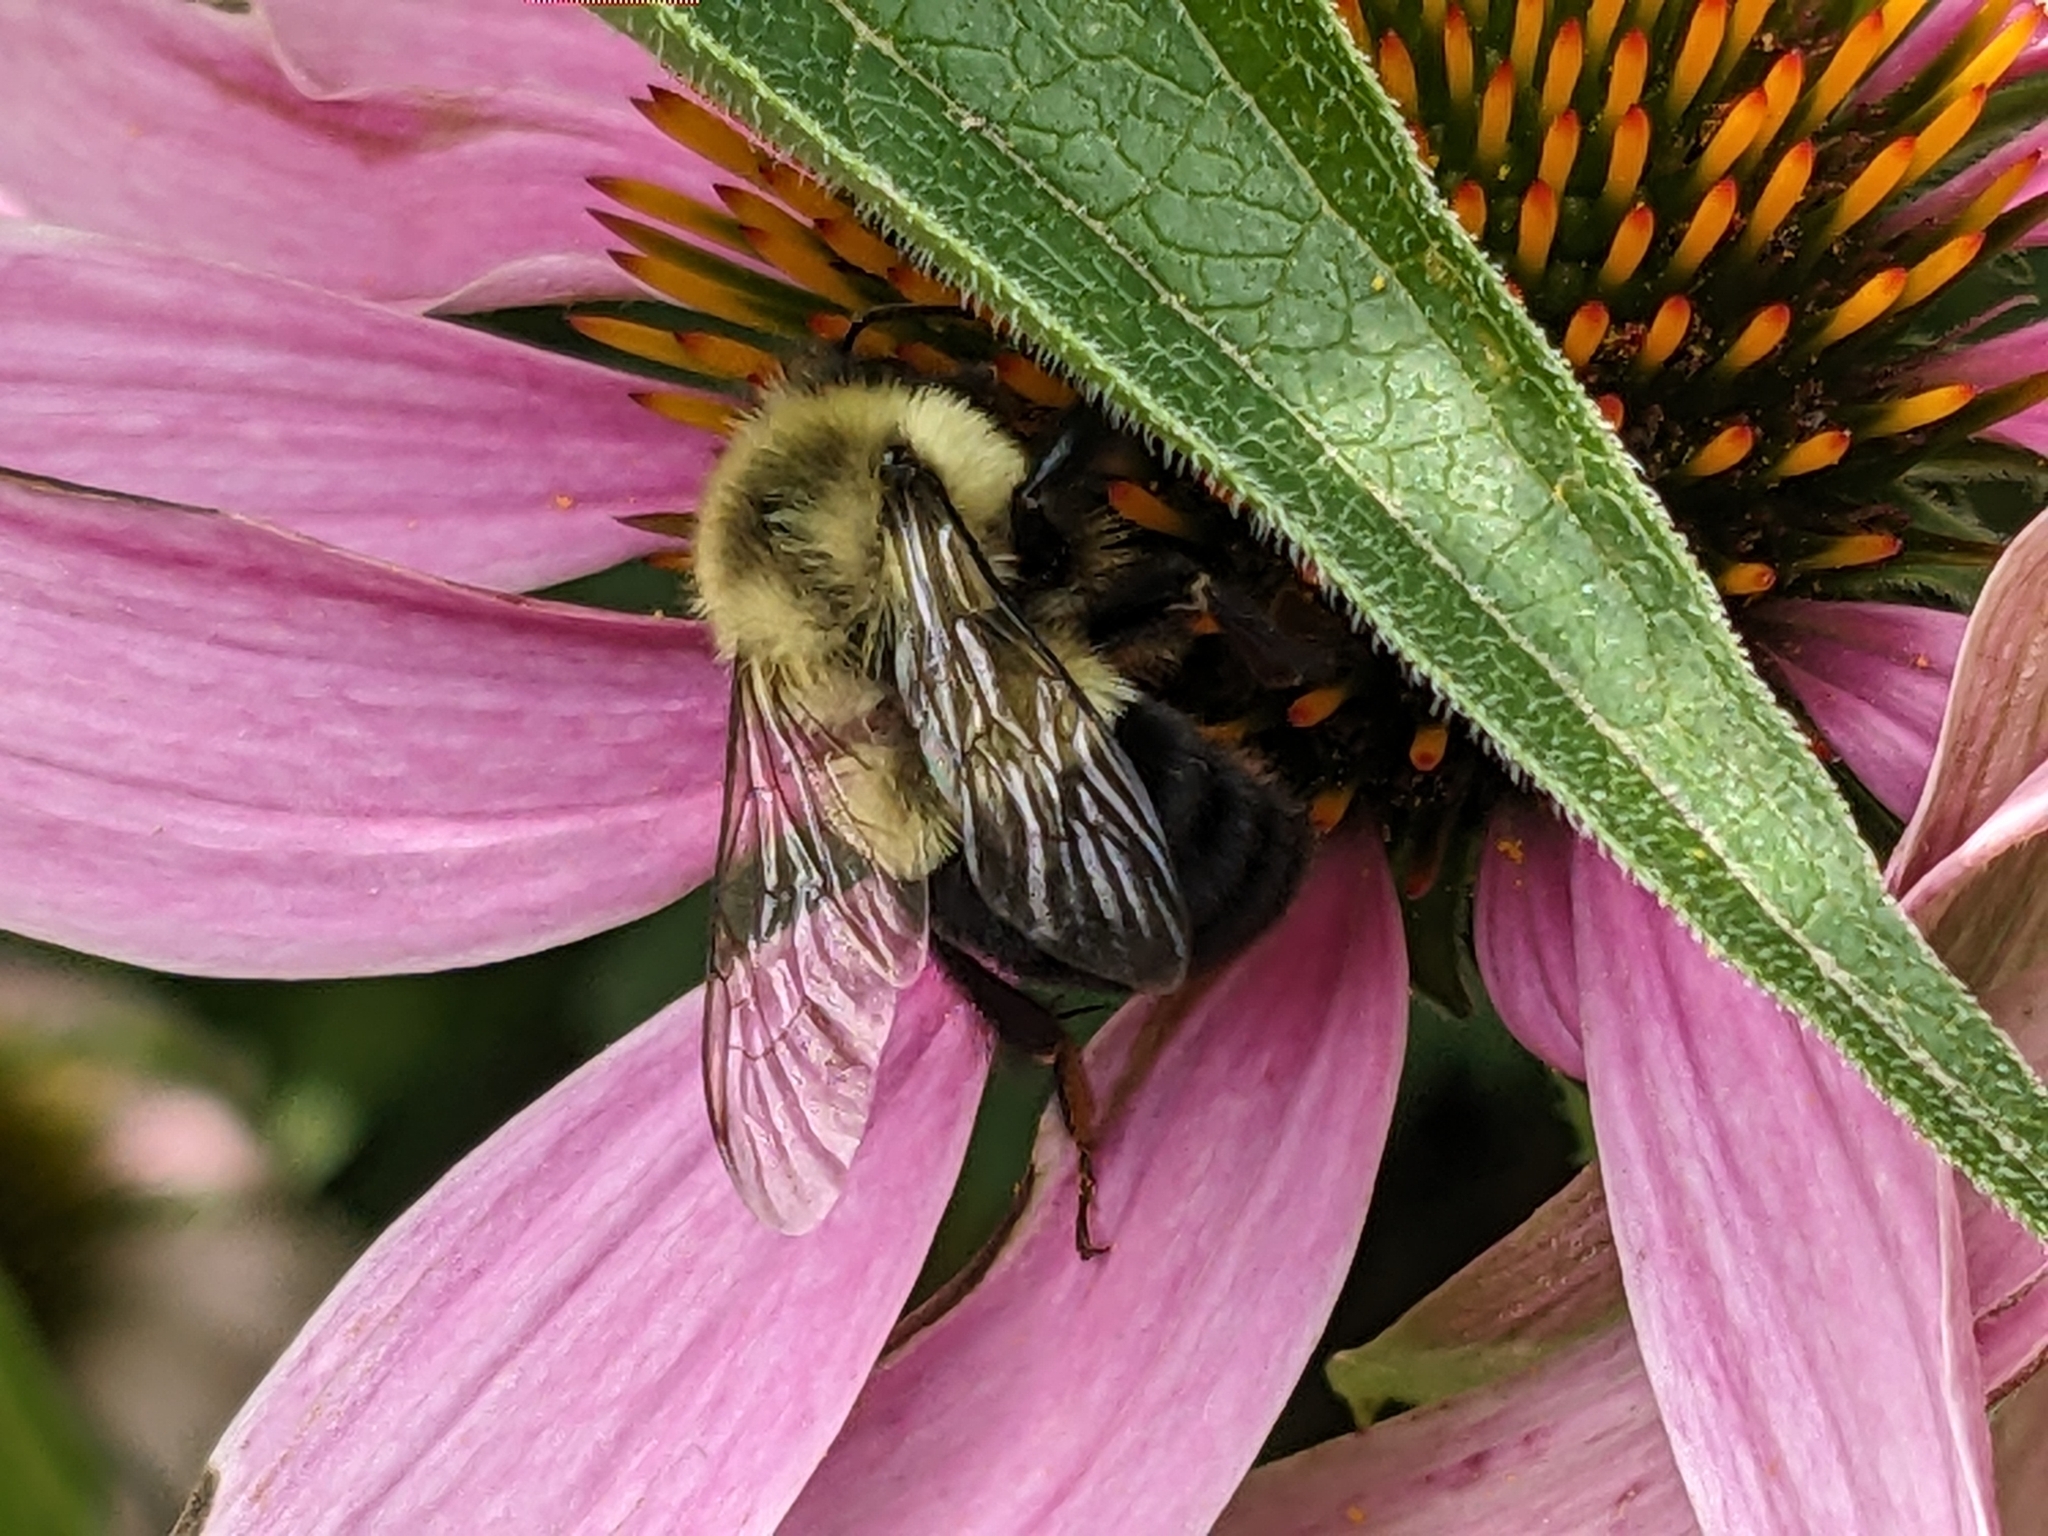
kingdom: Animalia
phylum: Arthropoda
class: Insecta
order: Hymenoptera
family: Apidae
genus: Bombus
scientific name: Bombus impatiens
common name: Common eastern bumble bee
